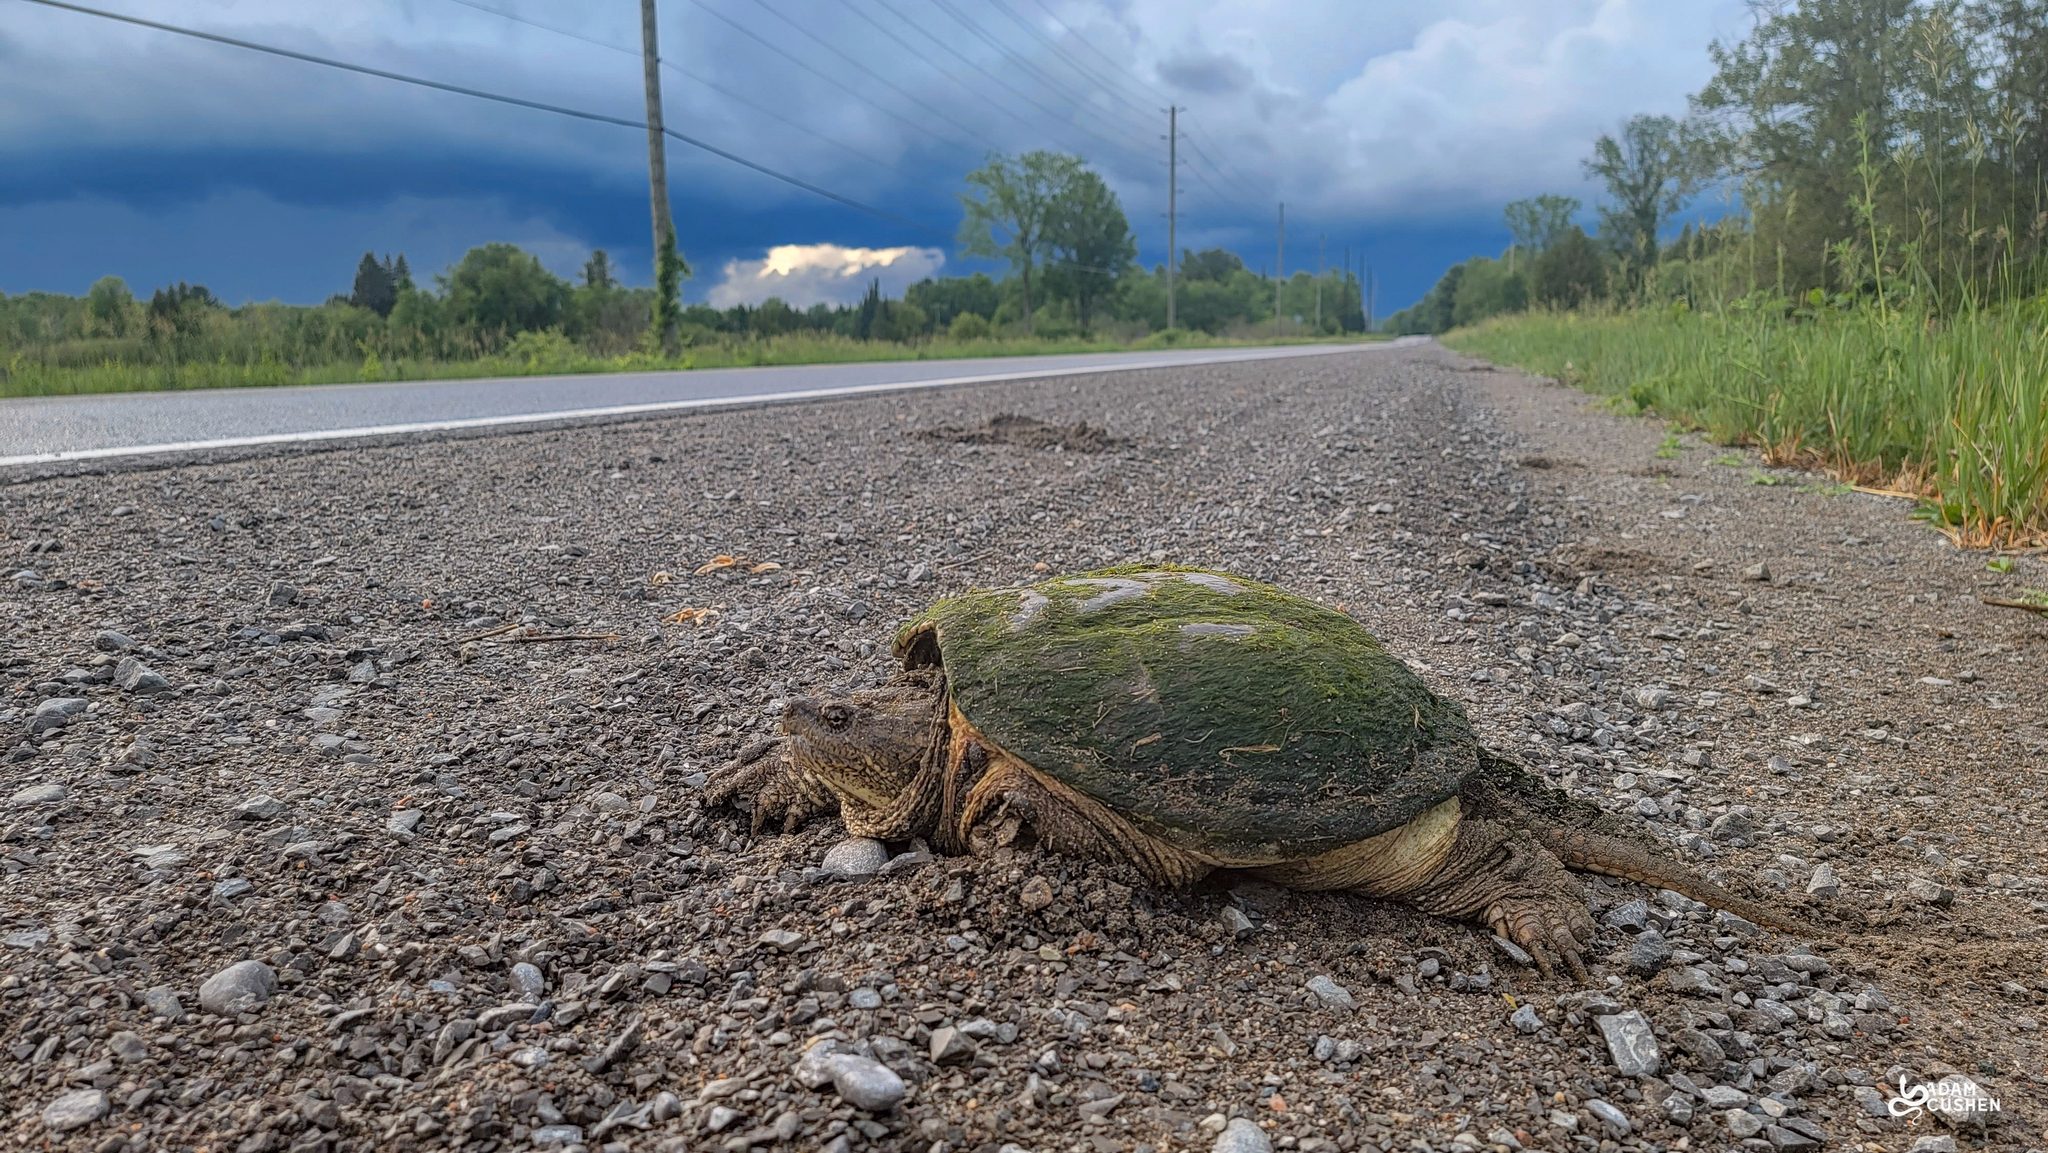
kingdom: Animalia
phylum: Chordata
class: Testudines
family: Chelydridae
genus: Chelydra
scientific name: Chelydra serpentina
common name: Common snapping turtle
